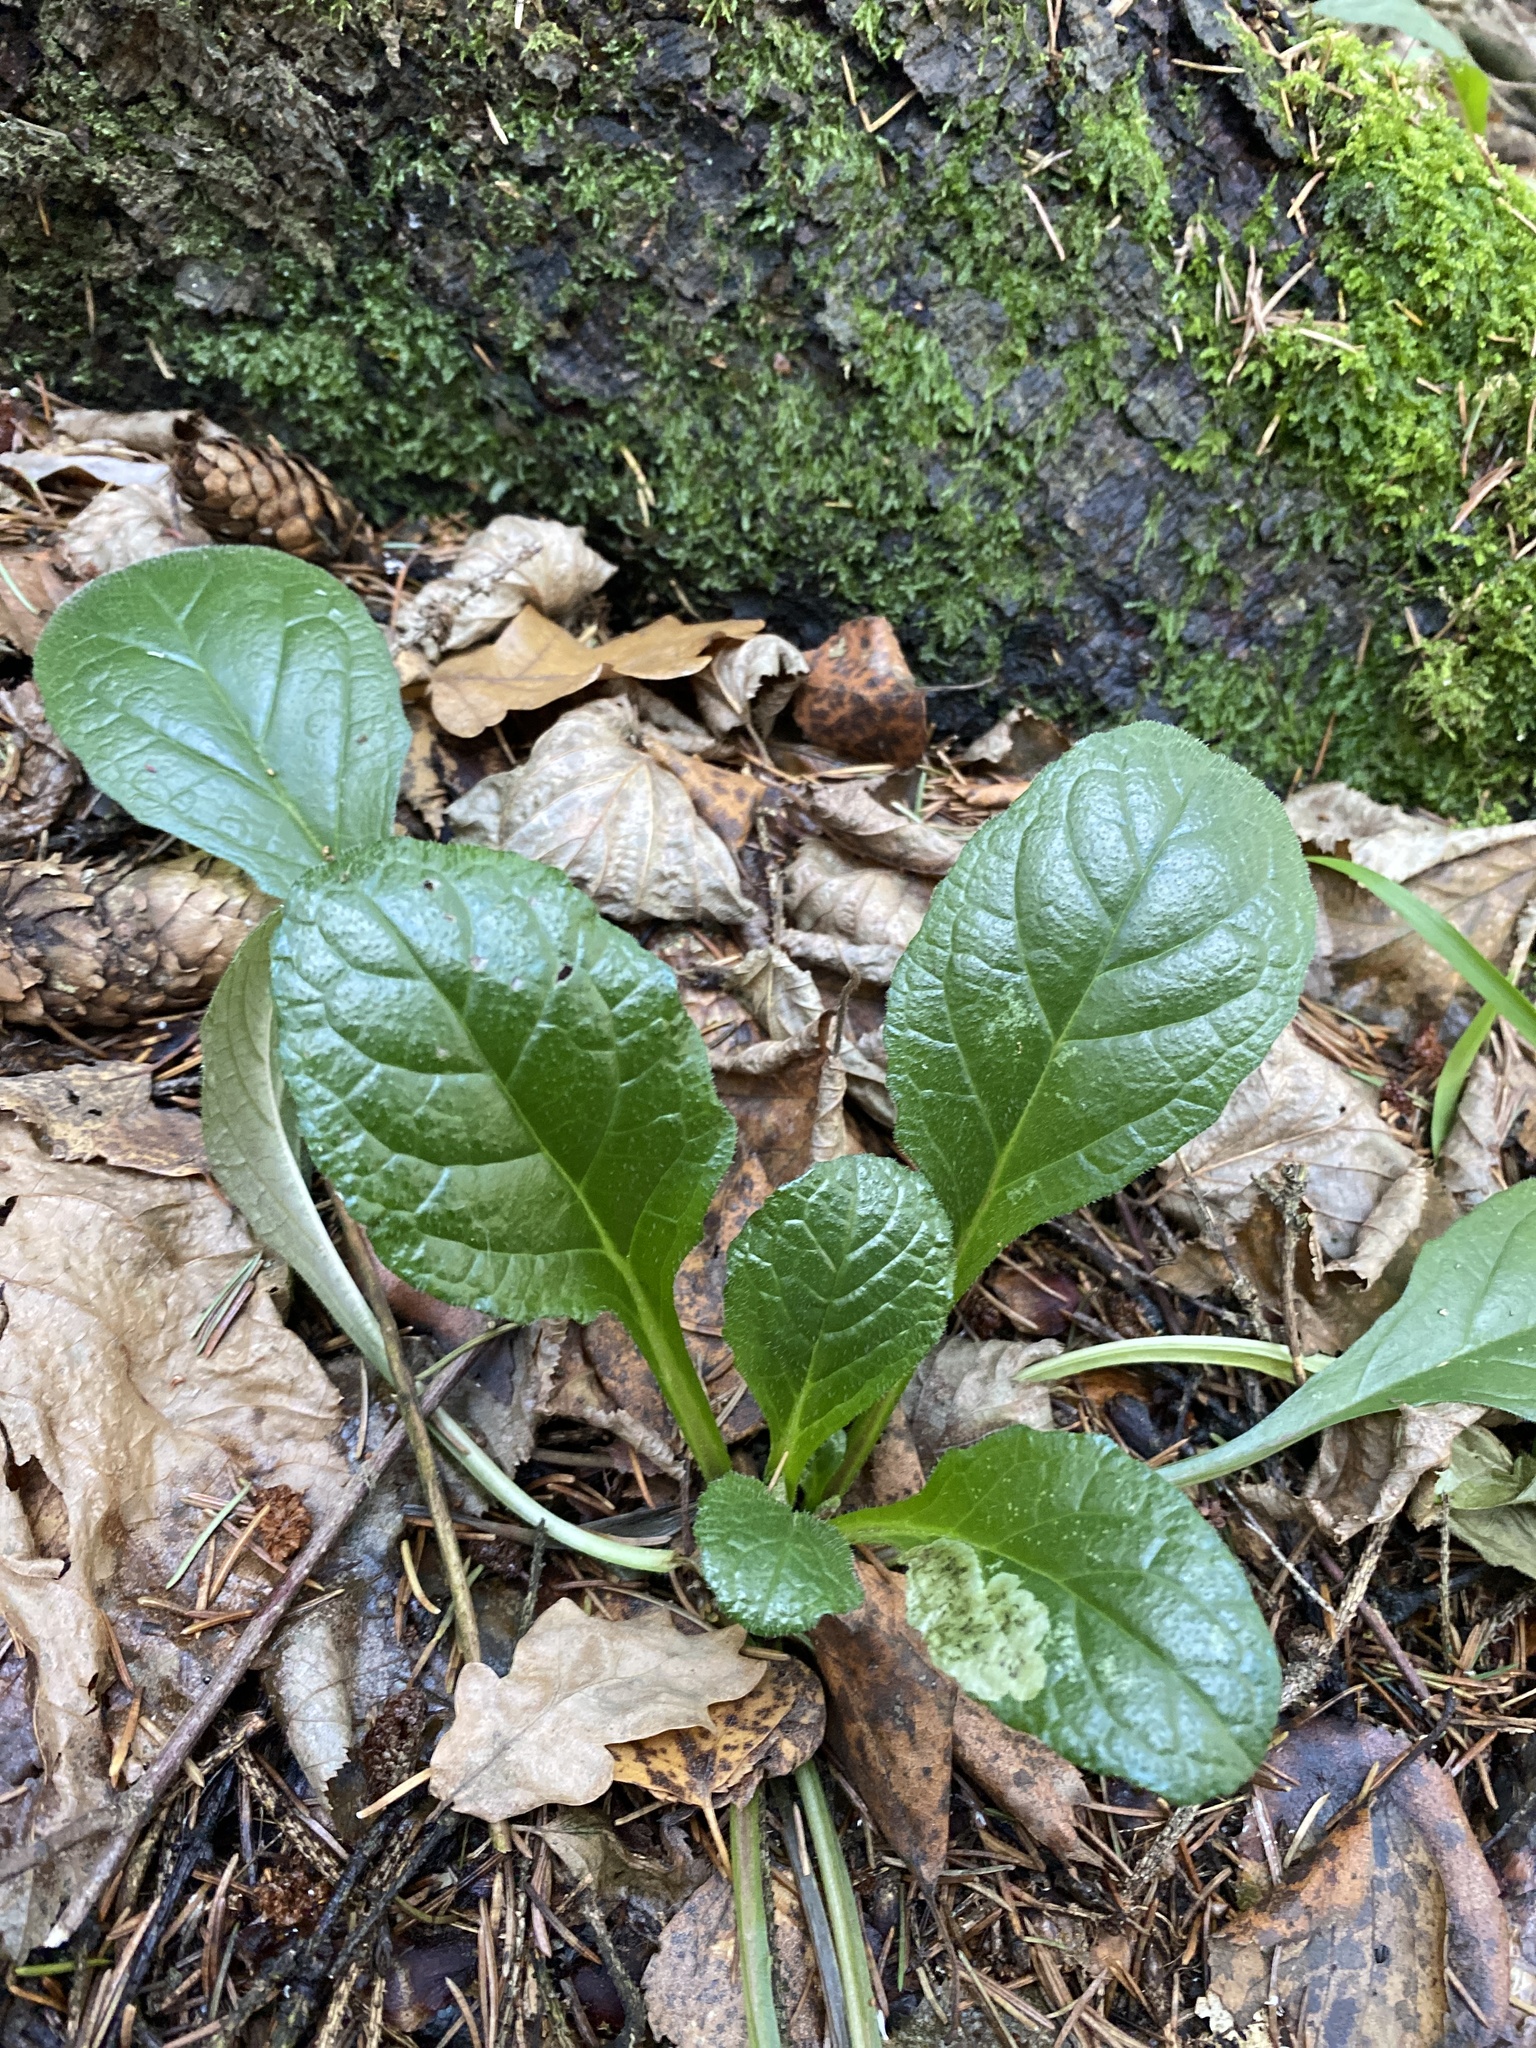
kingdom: Plantae
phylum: Tracheophyta
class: Magnoliopsida
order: Lamiales
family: Lamiaceae
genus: Ajuga
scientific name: Ajuga reptans
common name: Bugle
